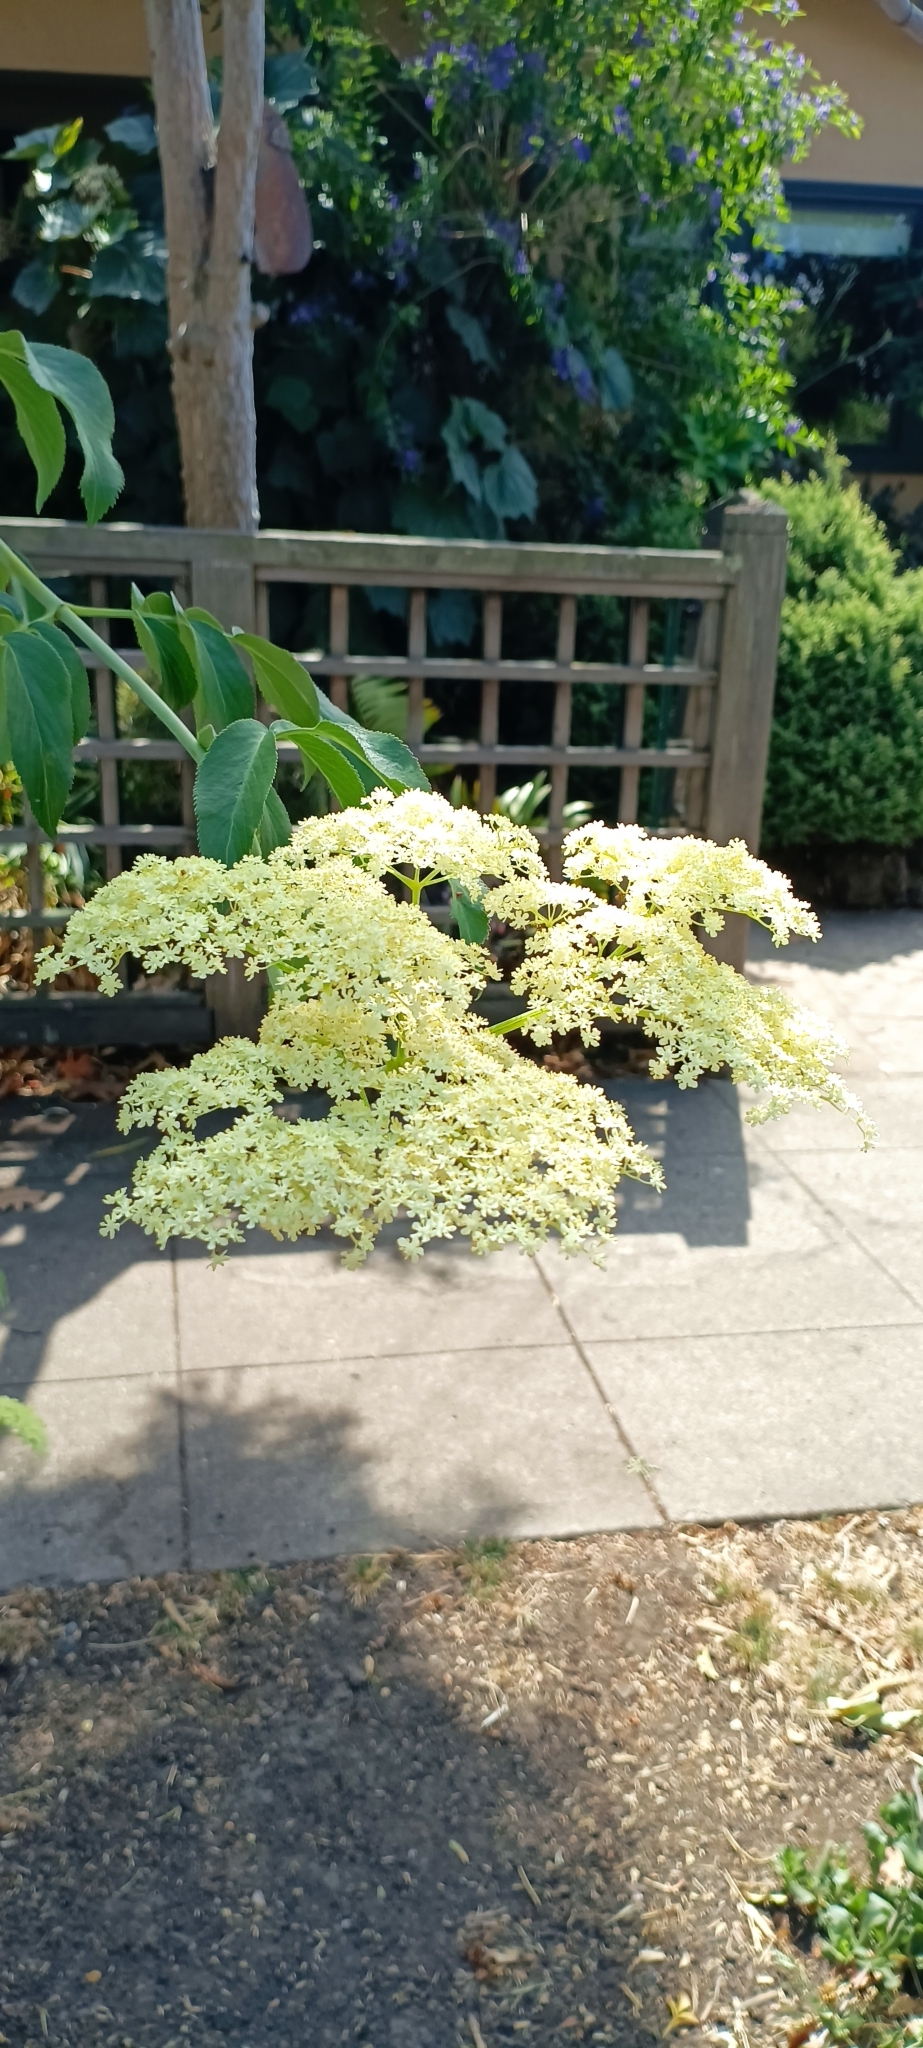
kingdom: Plantae
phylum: Tracheophyta
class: Magnoliopsida
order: Dipsacales
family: Viburnaceae
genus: Sambucus
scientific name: Sambucus cerulea
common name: Blue elder
